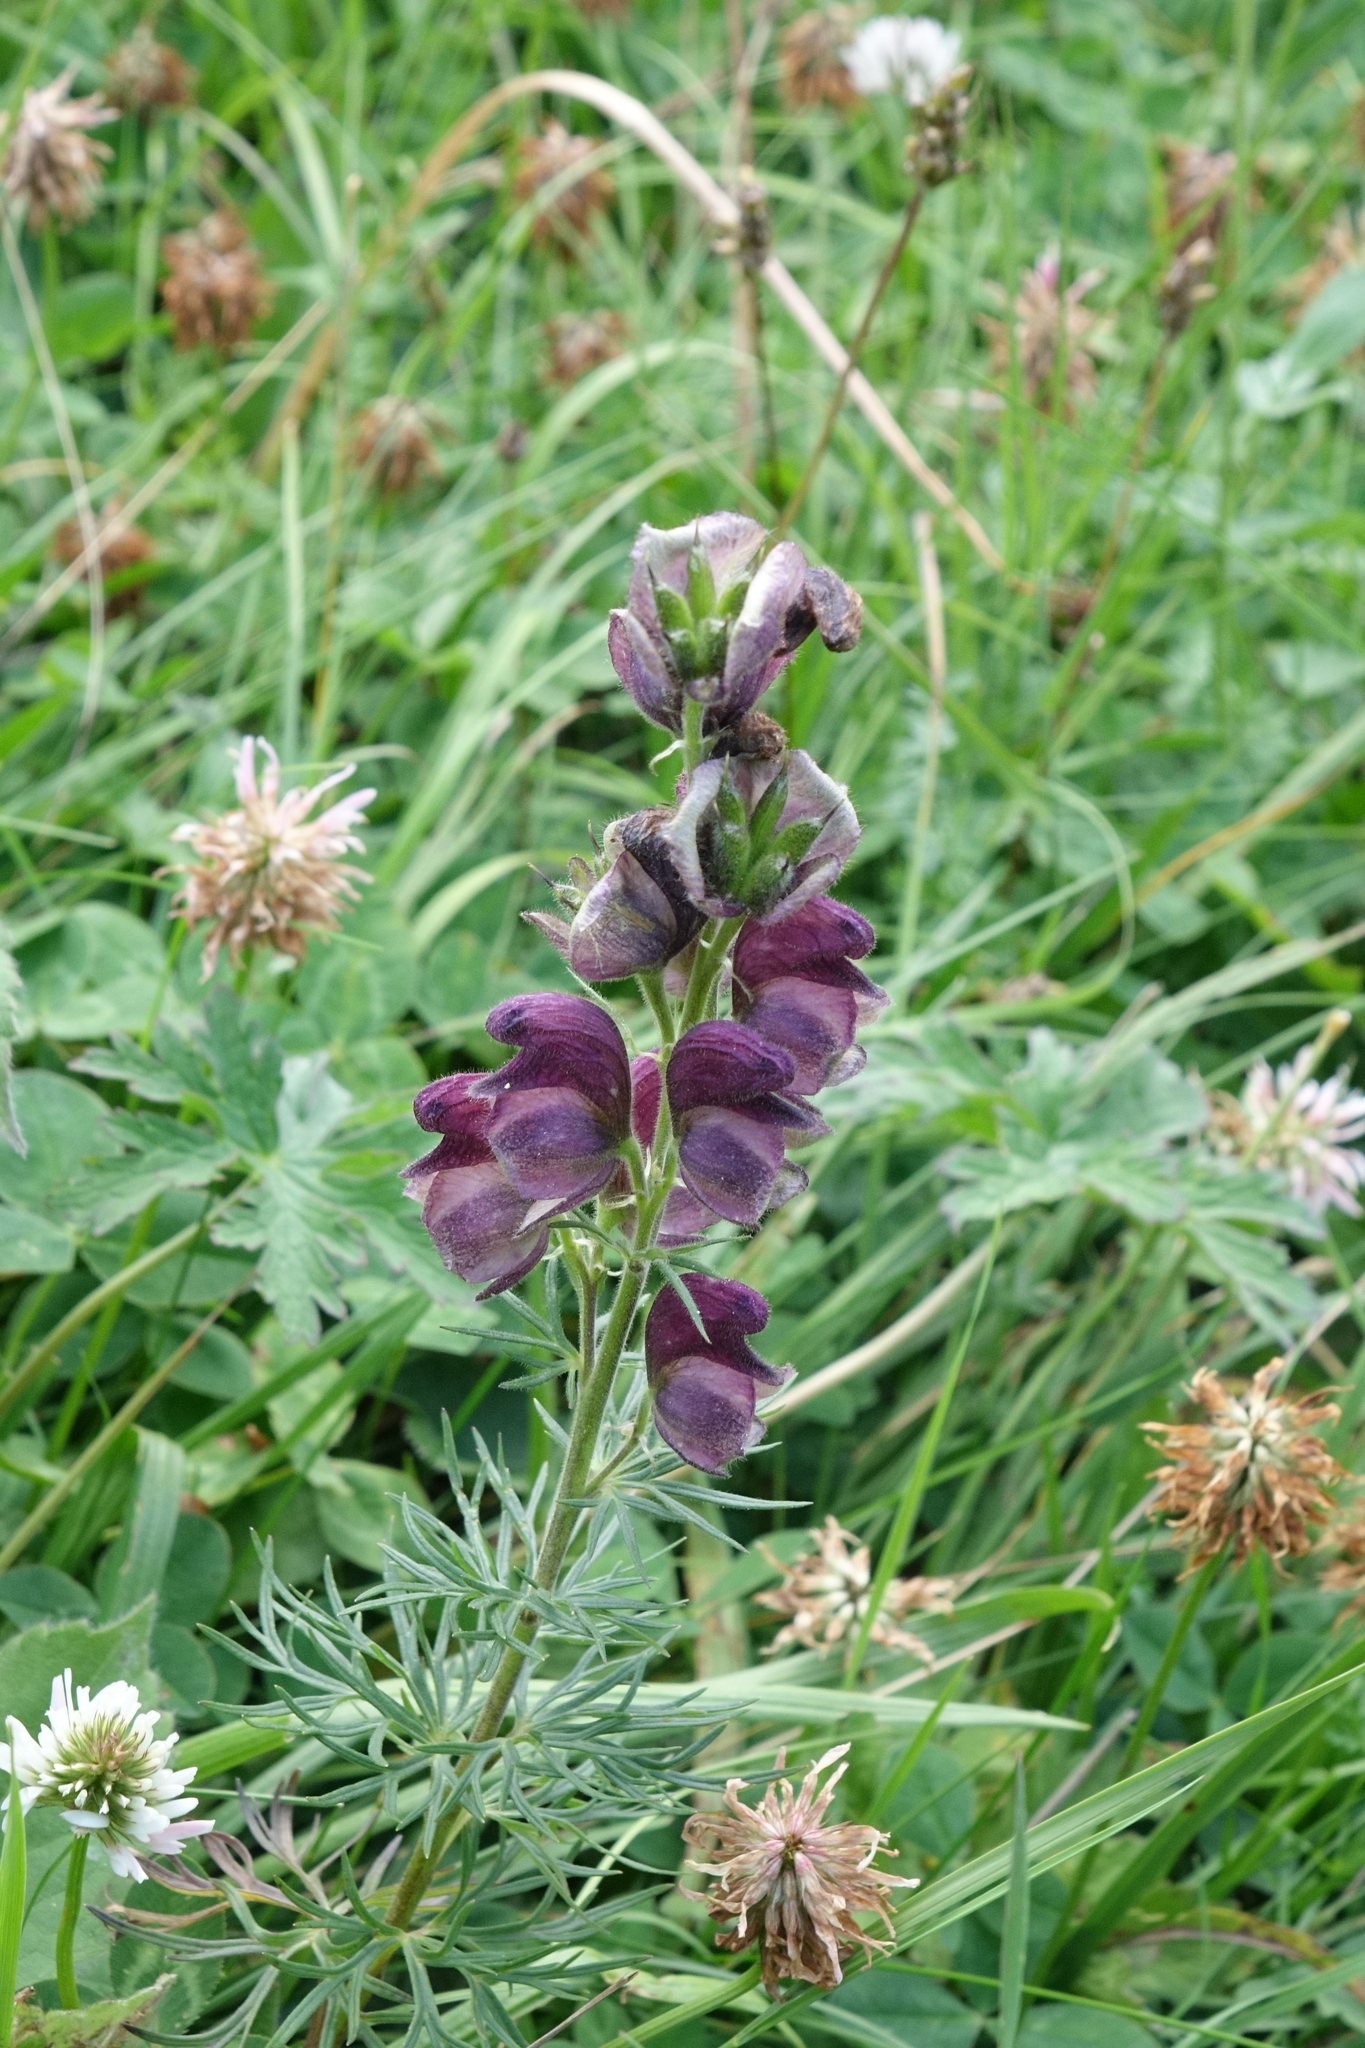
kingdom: Plantae
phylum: Tracheophyta
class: Magnoliopsida
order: Ranunculales
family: Ranunculaceae
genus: Aconitum
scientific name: Aconitum anthora
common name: Yellow monkshood
